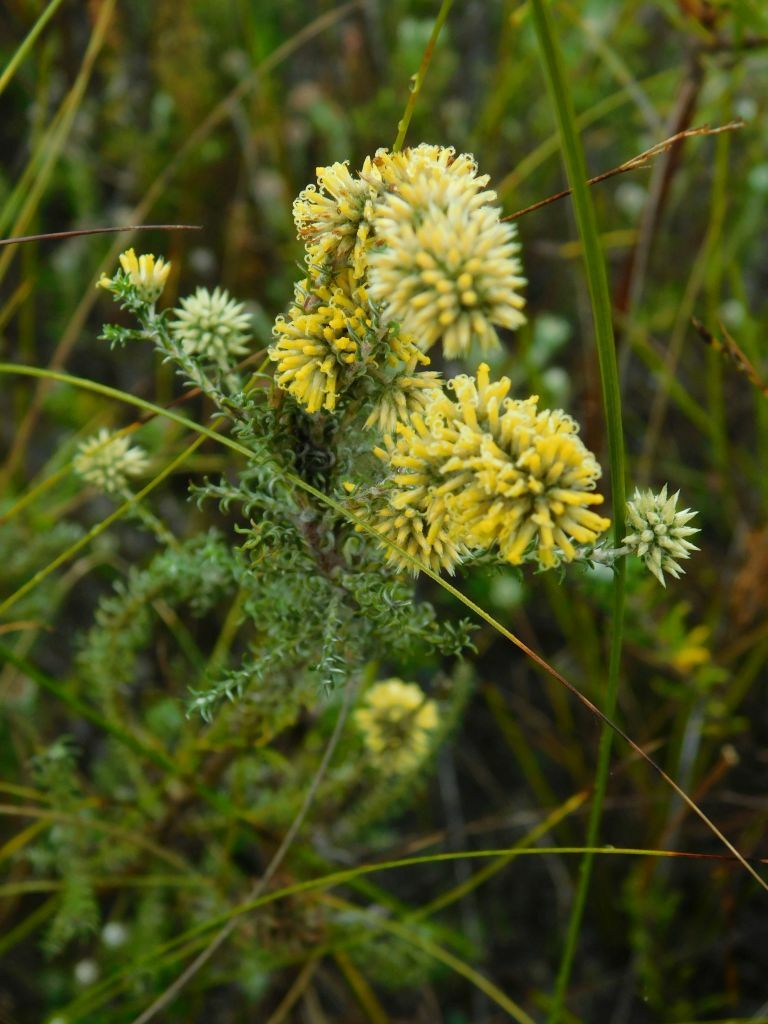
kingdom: Plantae
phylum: Tracheophyta
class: Magnoliopsida
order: Asterales
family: Asteraceae
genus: Seriphium
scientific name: Seriphium spirale
